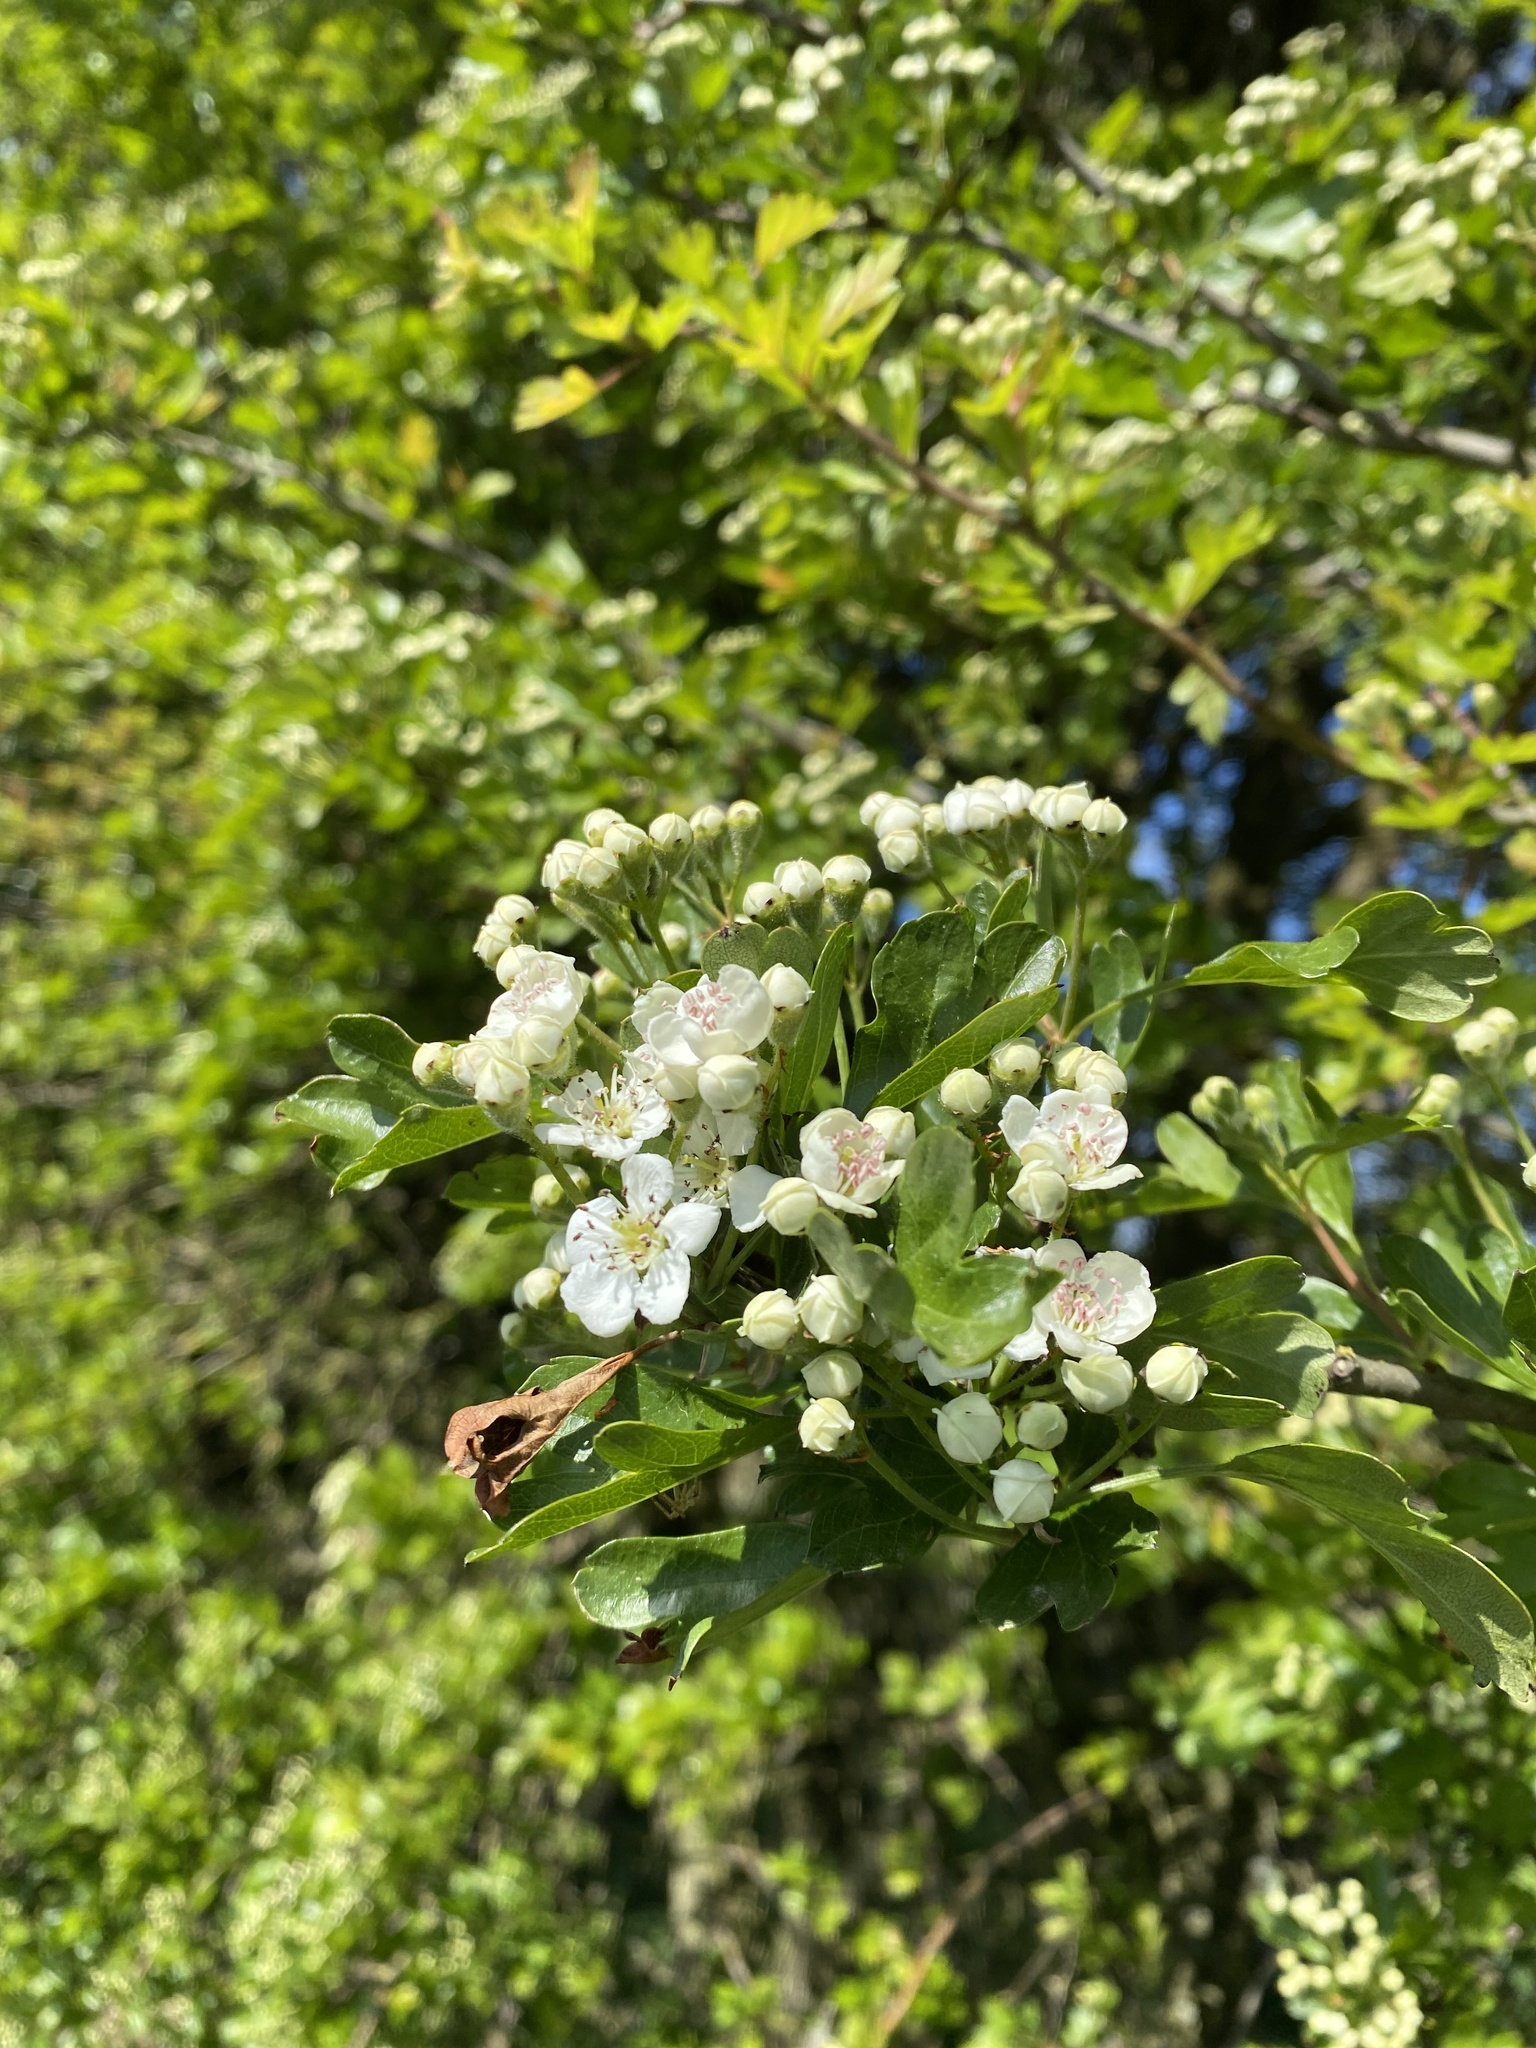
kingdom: Plantae
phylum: Tracheophyta
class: Magnoliopsida
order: Rosales
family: Rosaceae
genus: Crataegus
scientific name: Crataegus monogyna
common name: Hawthorn
